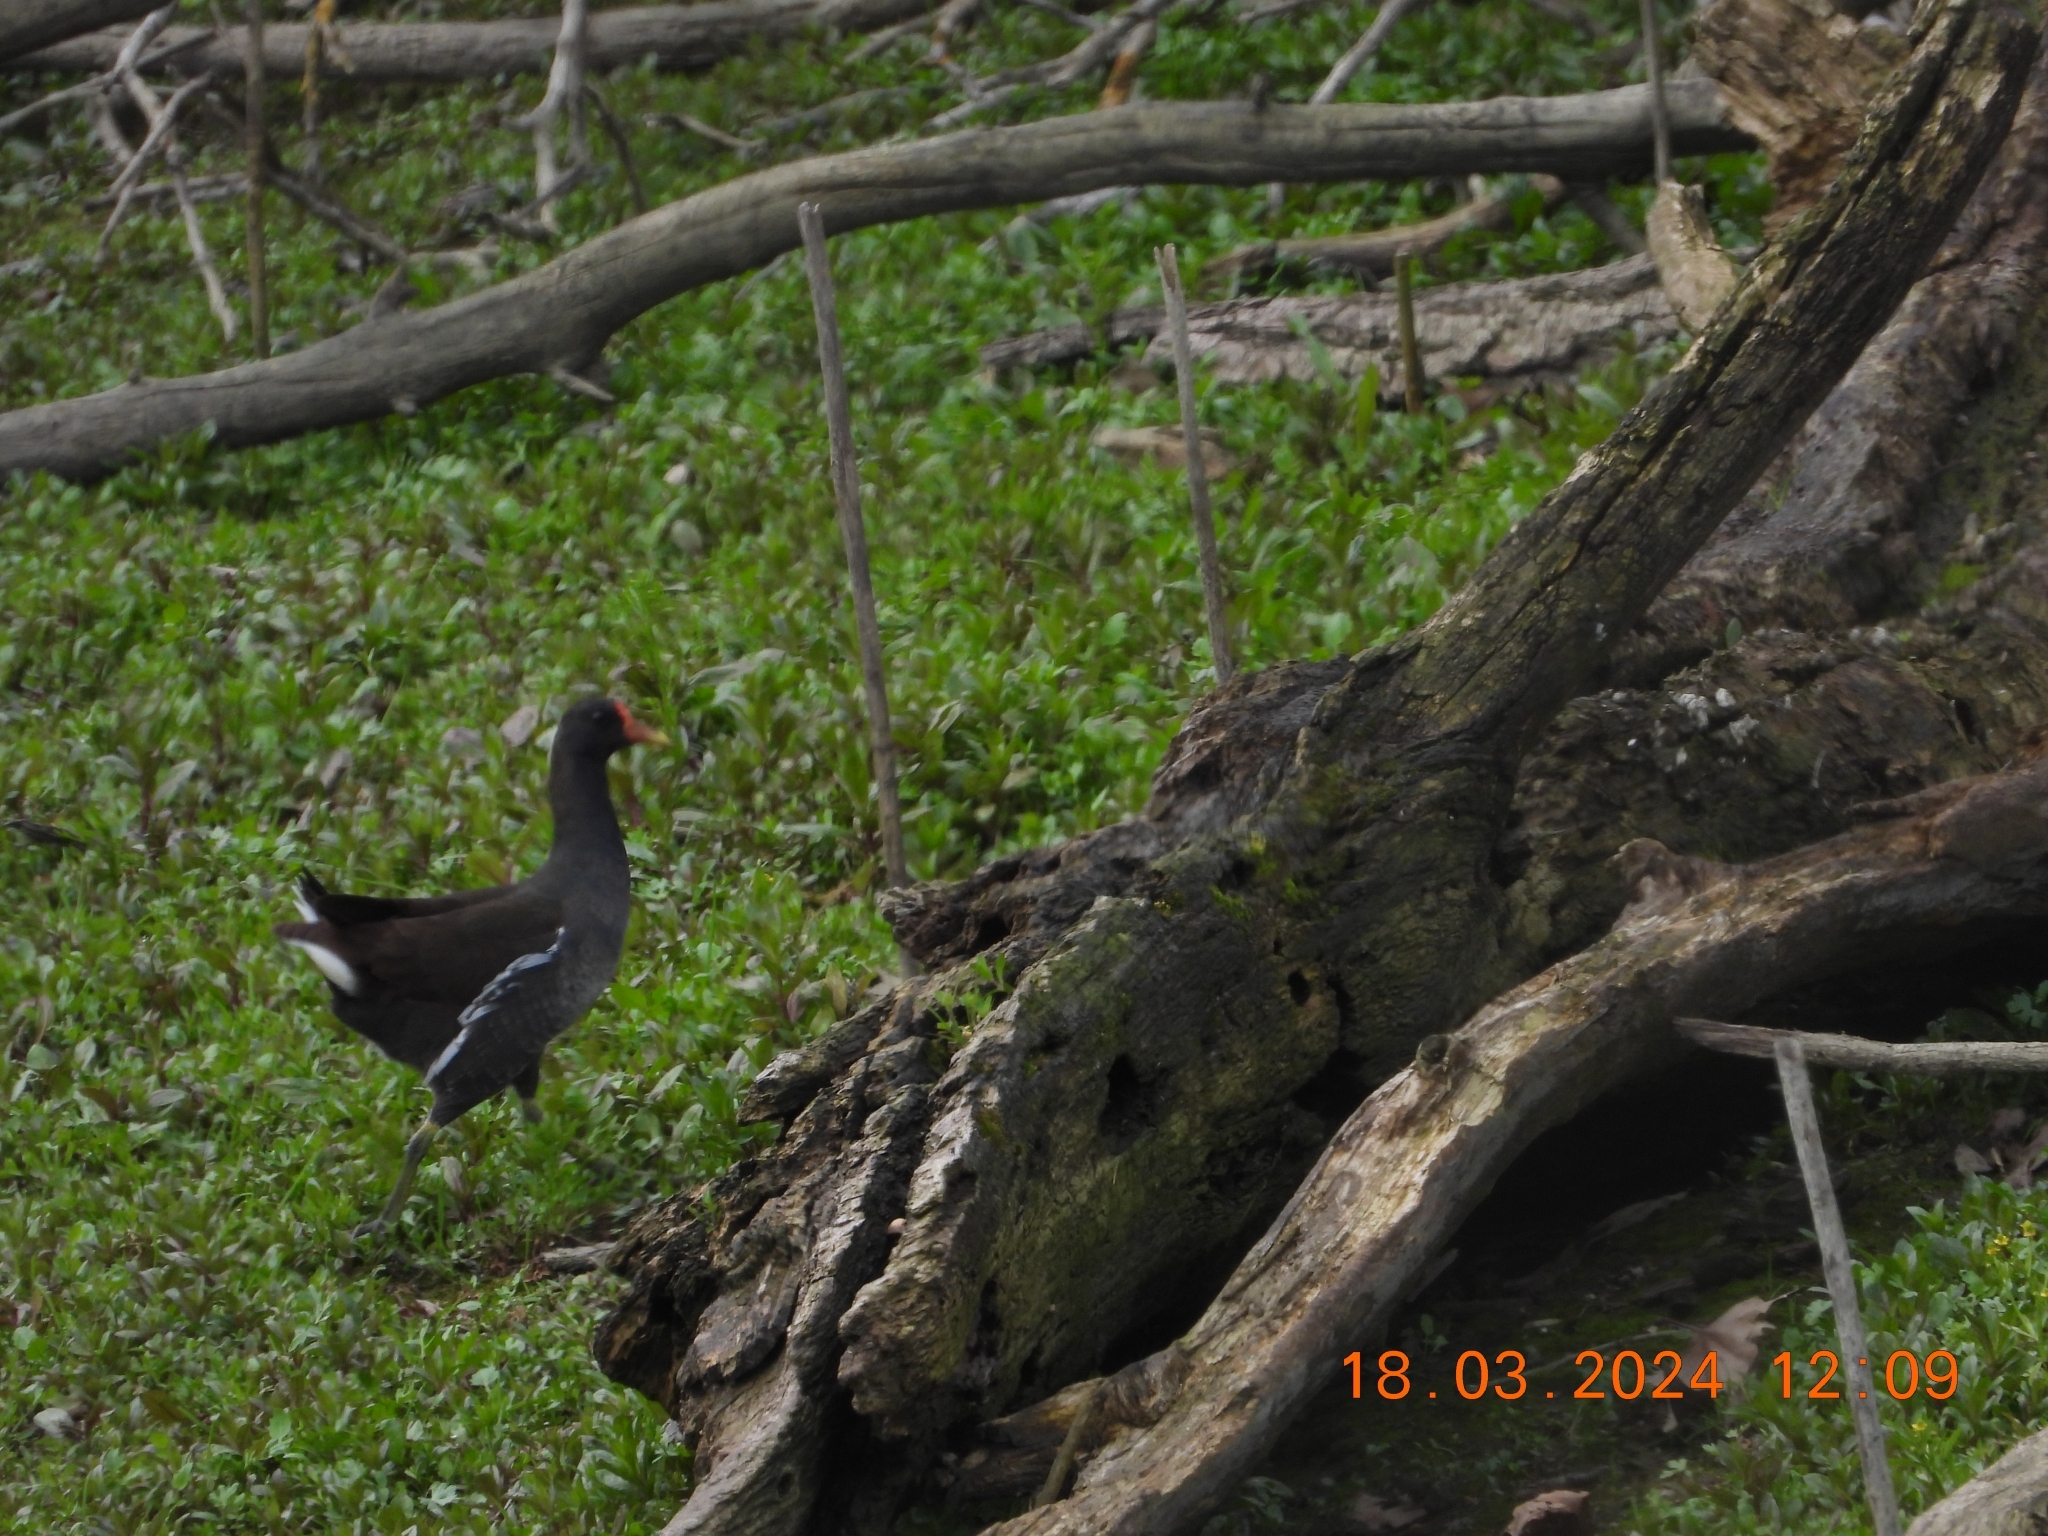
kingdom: Animalia
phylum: Chordata
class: Aves
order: Gruiformes
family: Rallidae
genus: Gallinula
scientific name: Gallinula chloropus
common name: Common moorhen
